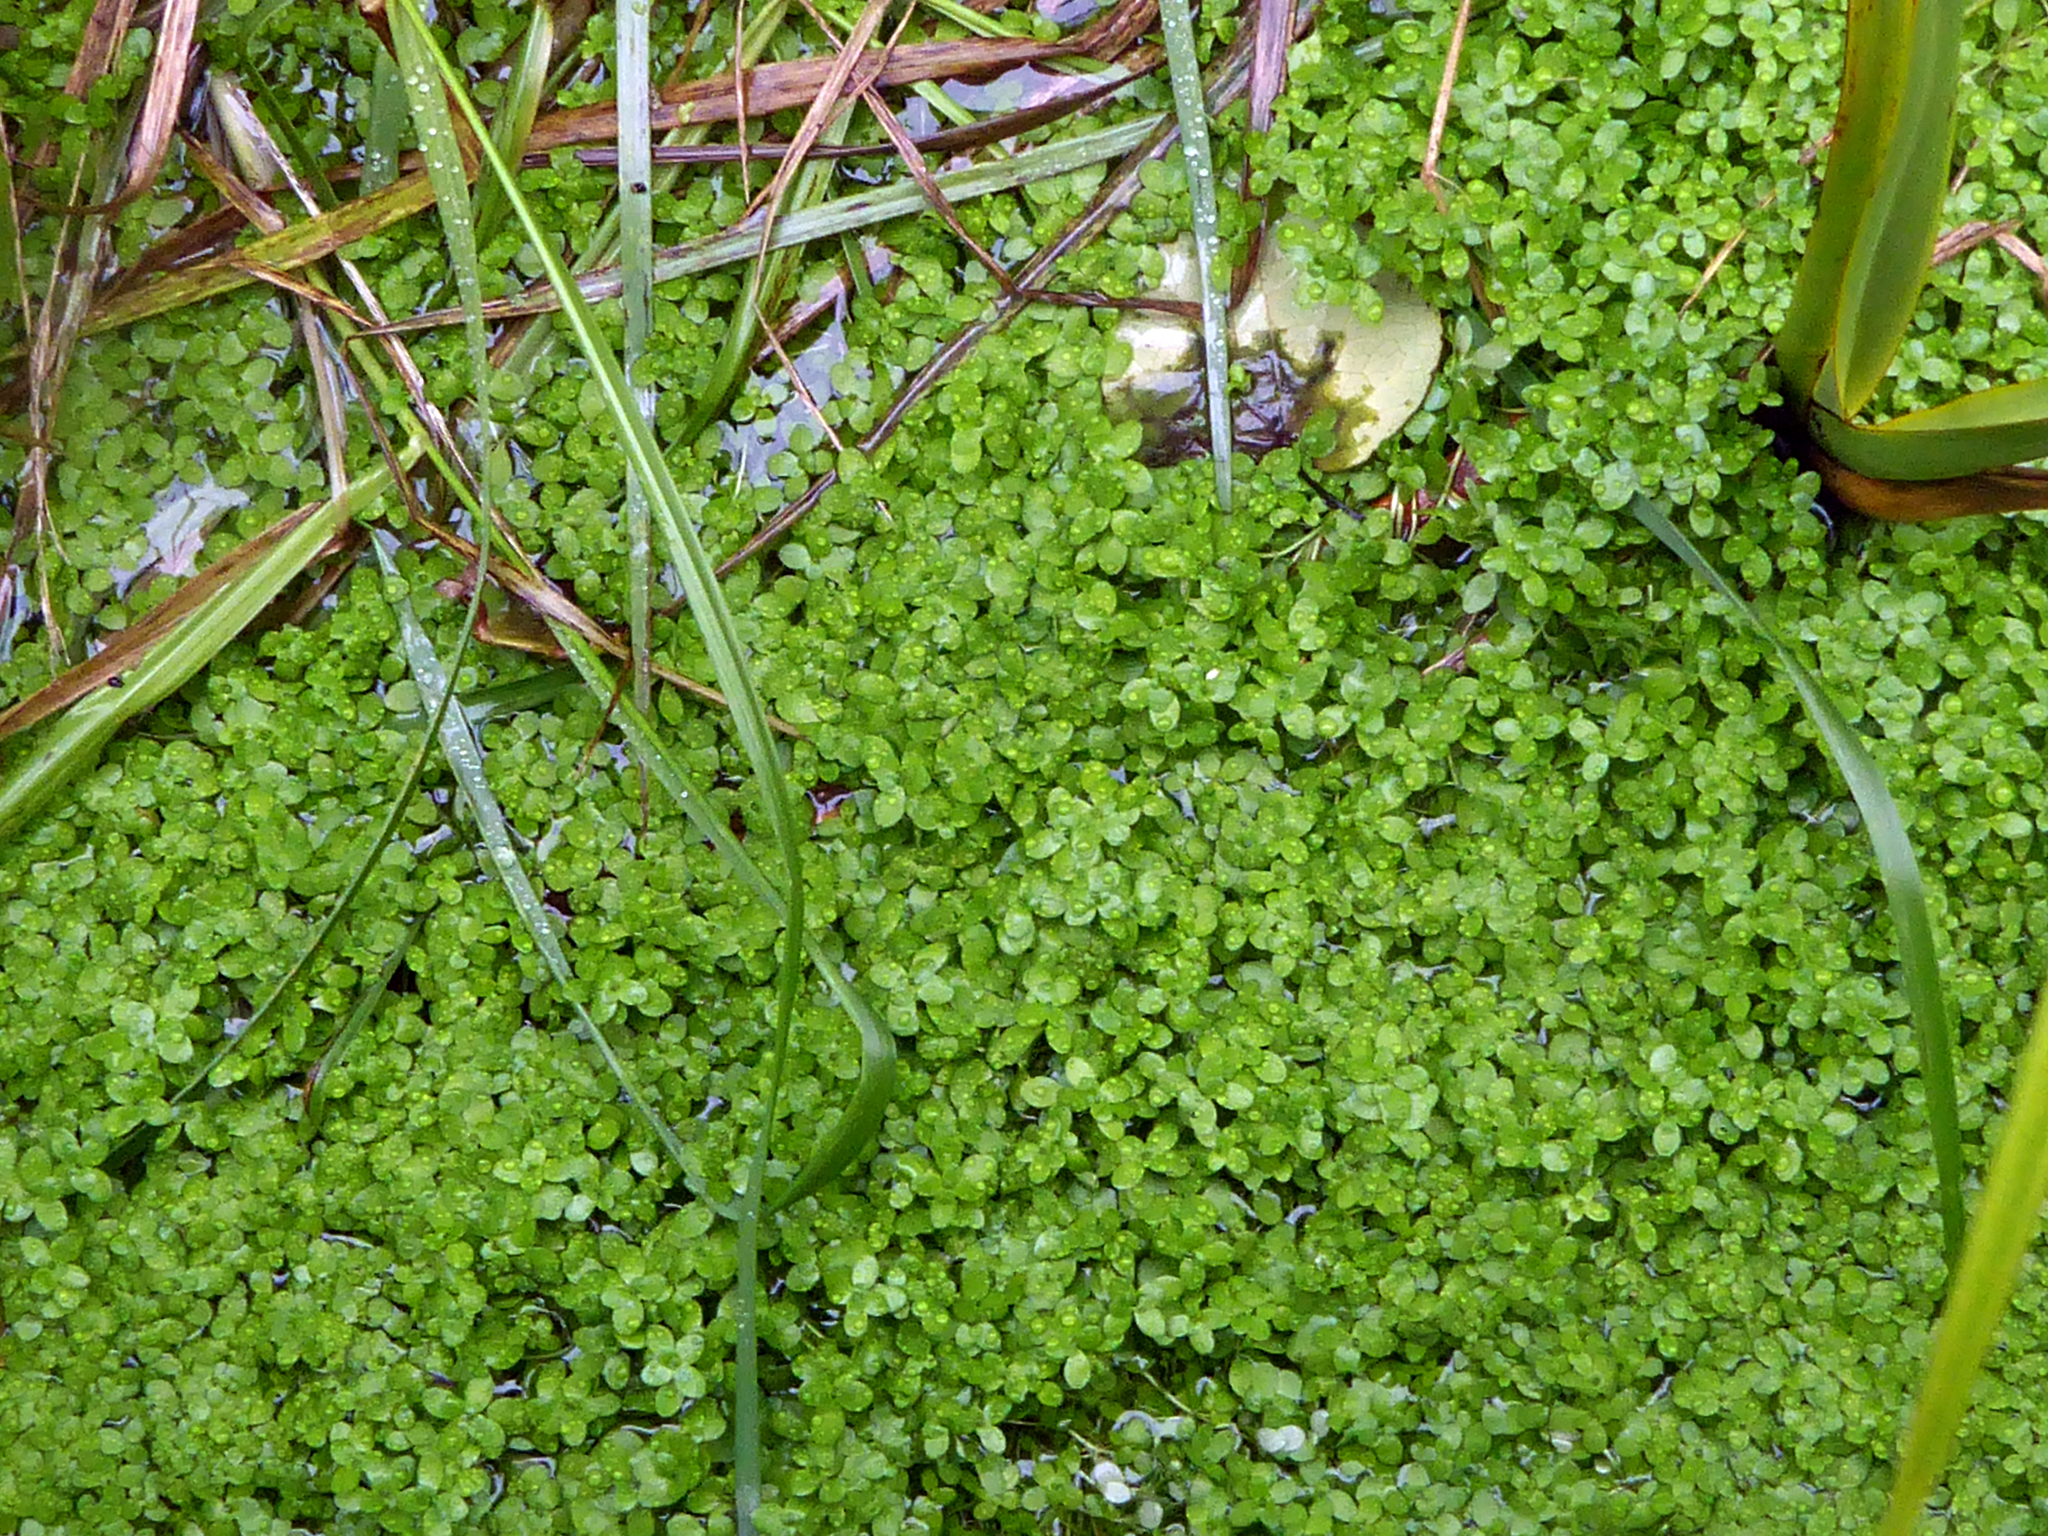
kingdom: Plantae
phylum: Tracheophyta
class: Magnoliopsida
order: Lamiales
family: Plantaginaceae
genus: Callitriche
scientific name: Callitriche stagnalis
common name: Common water-starwort
